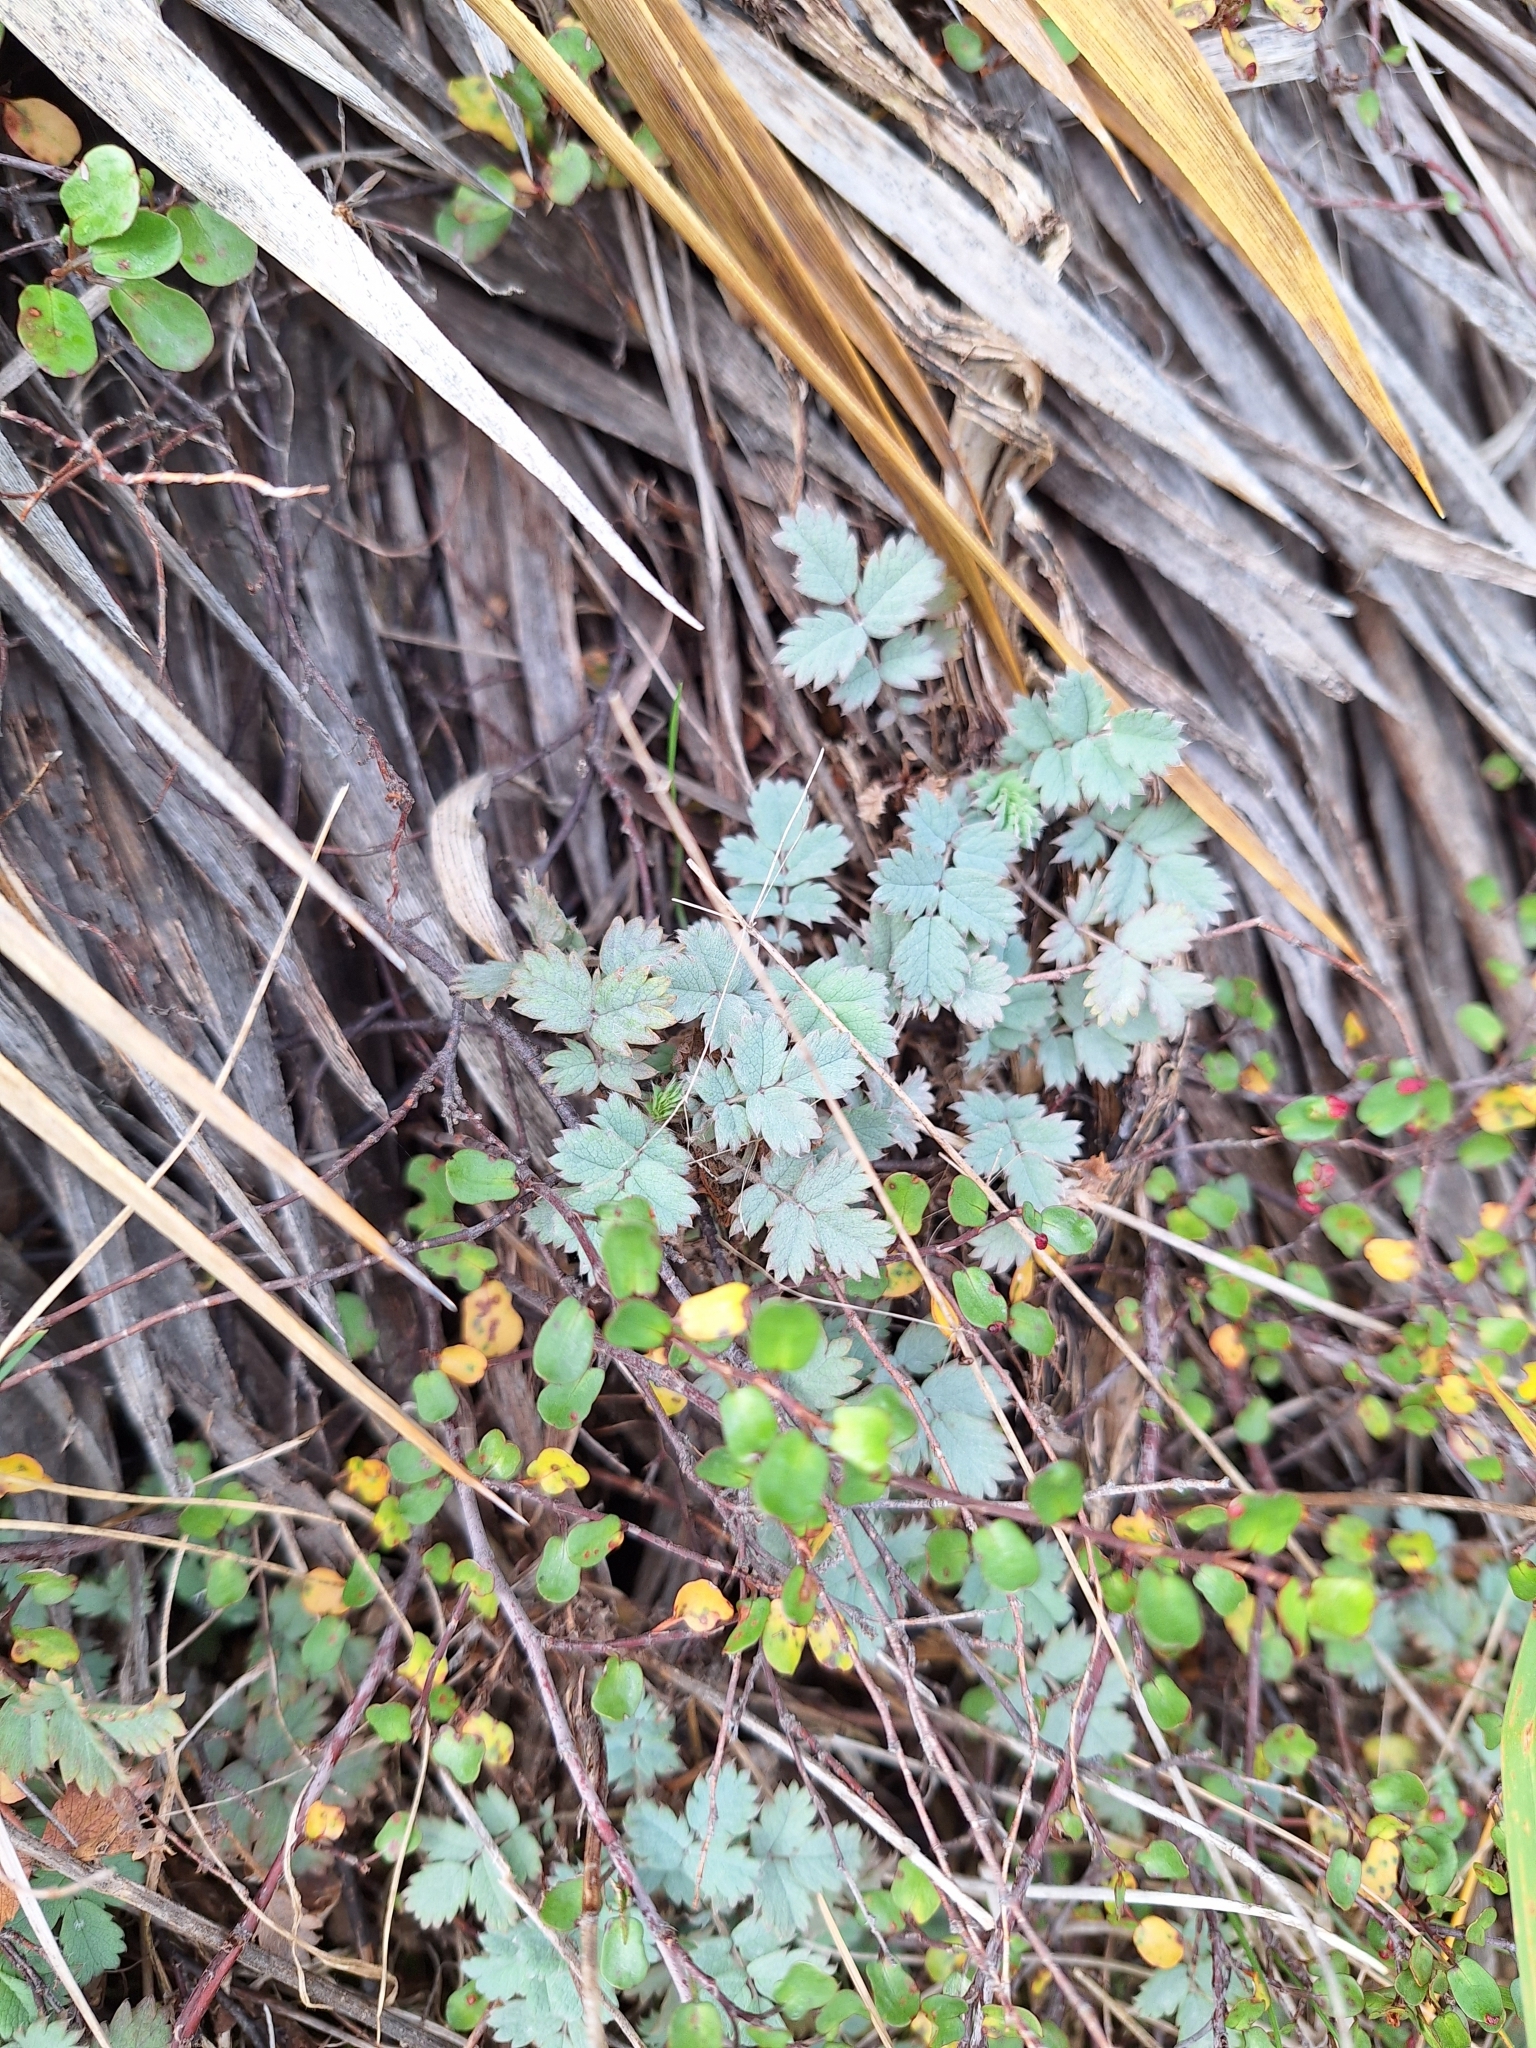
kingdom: Plantae
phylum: Tracheophyta
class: Magnoliopsida
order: Rosales
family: Rosaceae
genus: Acaena
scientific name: Acaena caesiiglauca
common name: Glaucous pirri-pirri-bur
